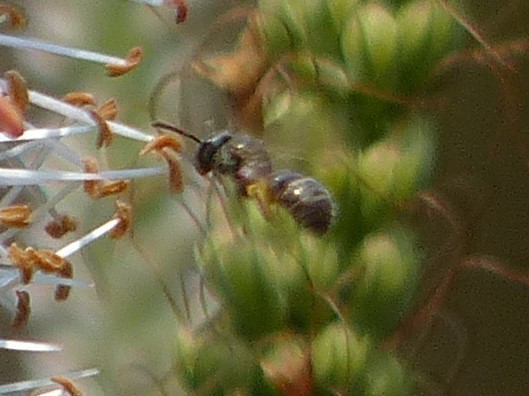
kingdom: Animalia
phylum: Arthropoda
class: Insecta
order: Hymenoptera
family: Halictidae
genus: Dialictus
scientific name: Dialictus
